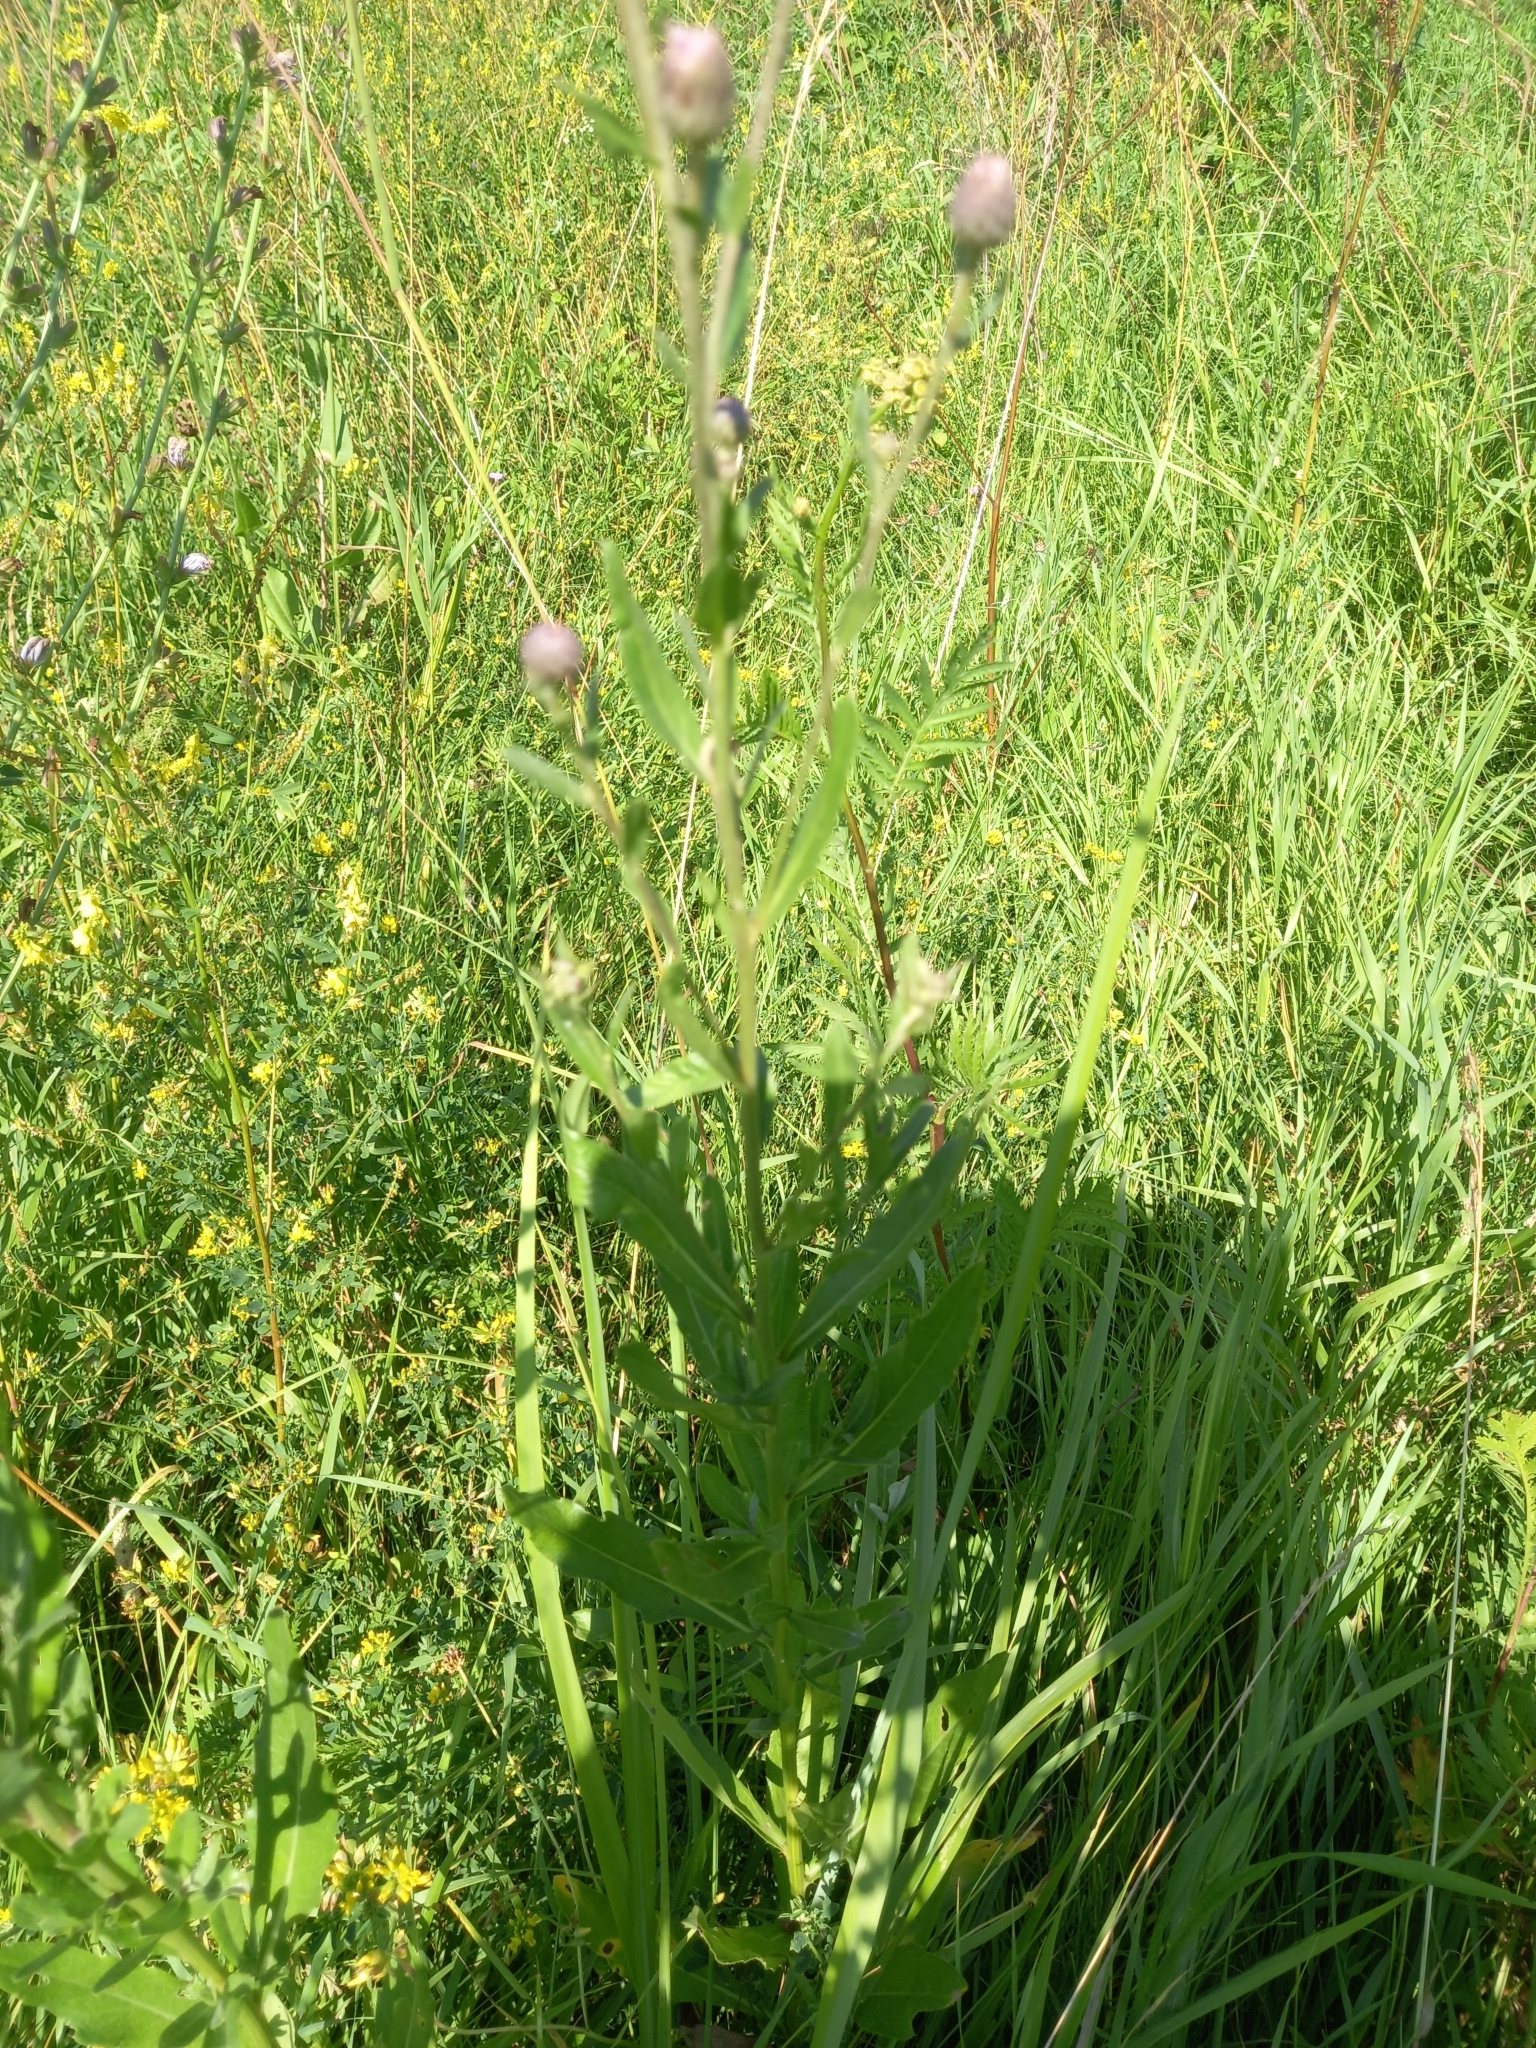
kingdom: Plantae
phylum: Tracheophyta
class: Magnoliopsida
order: Asterales
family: Asteraceae
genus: Cirsium
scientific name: Cirsium arvense
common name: Creeping thistle
